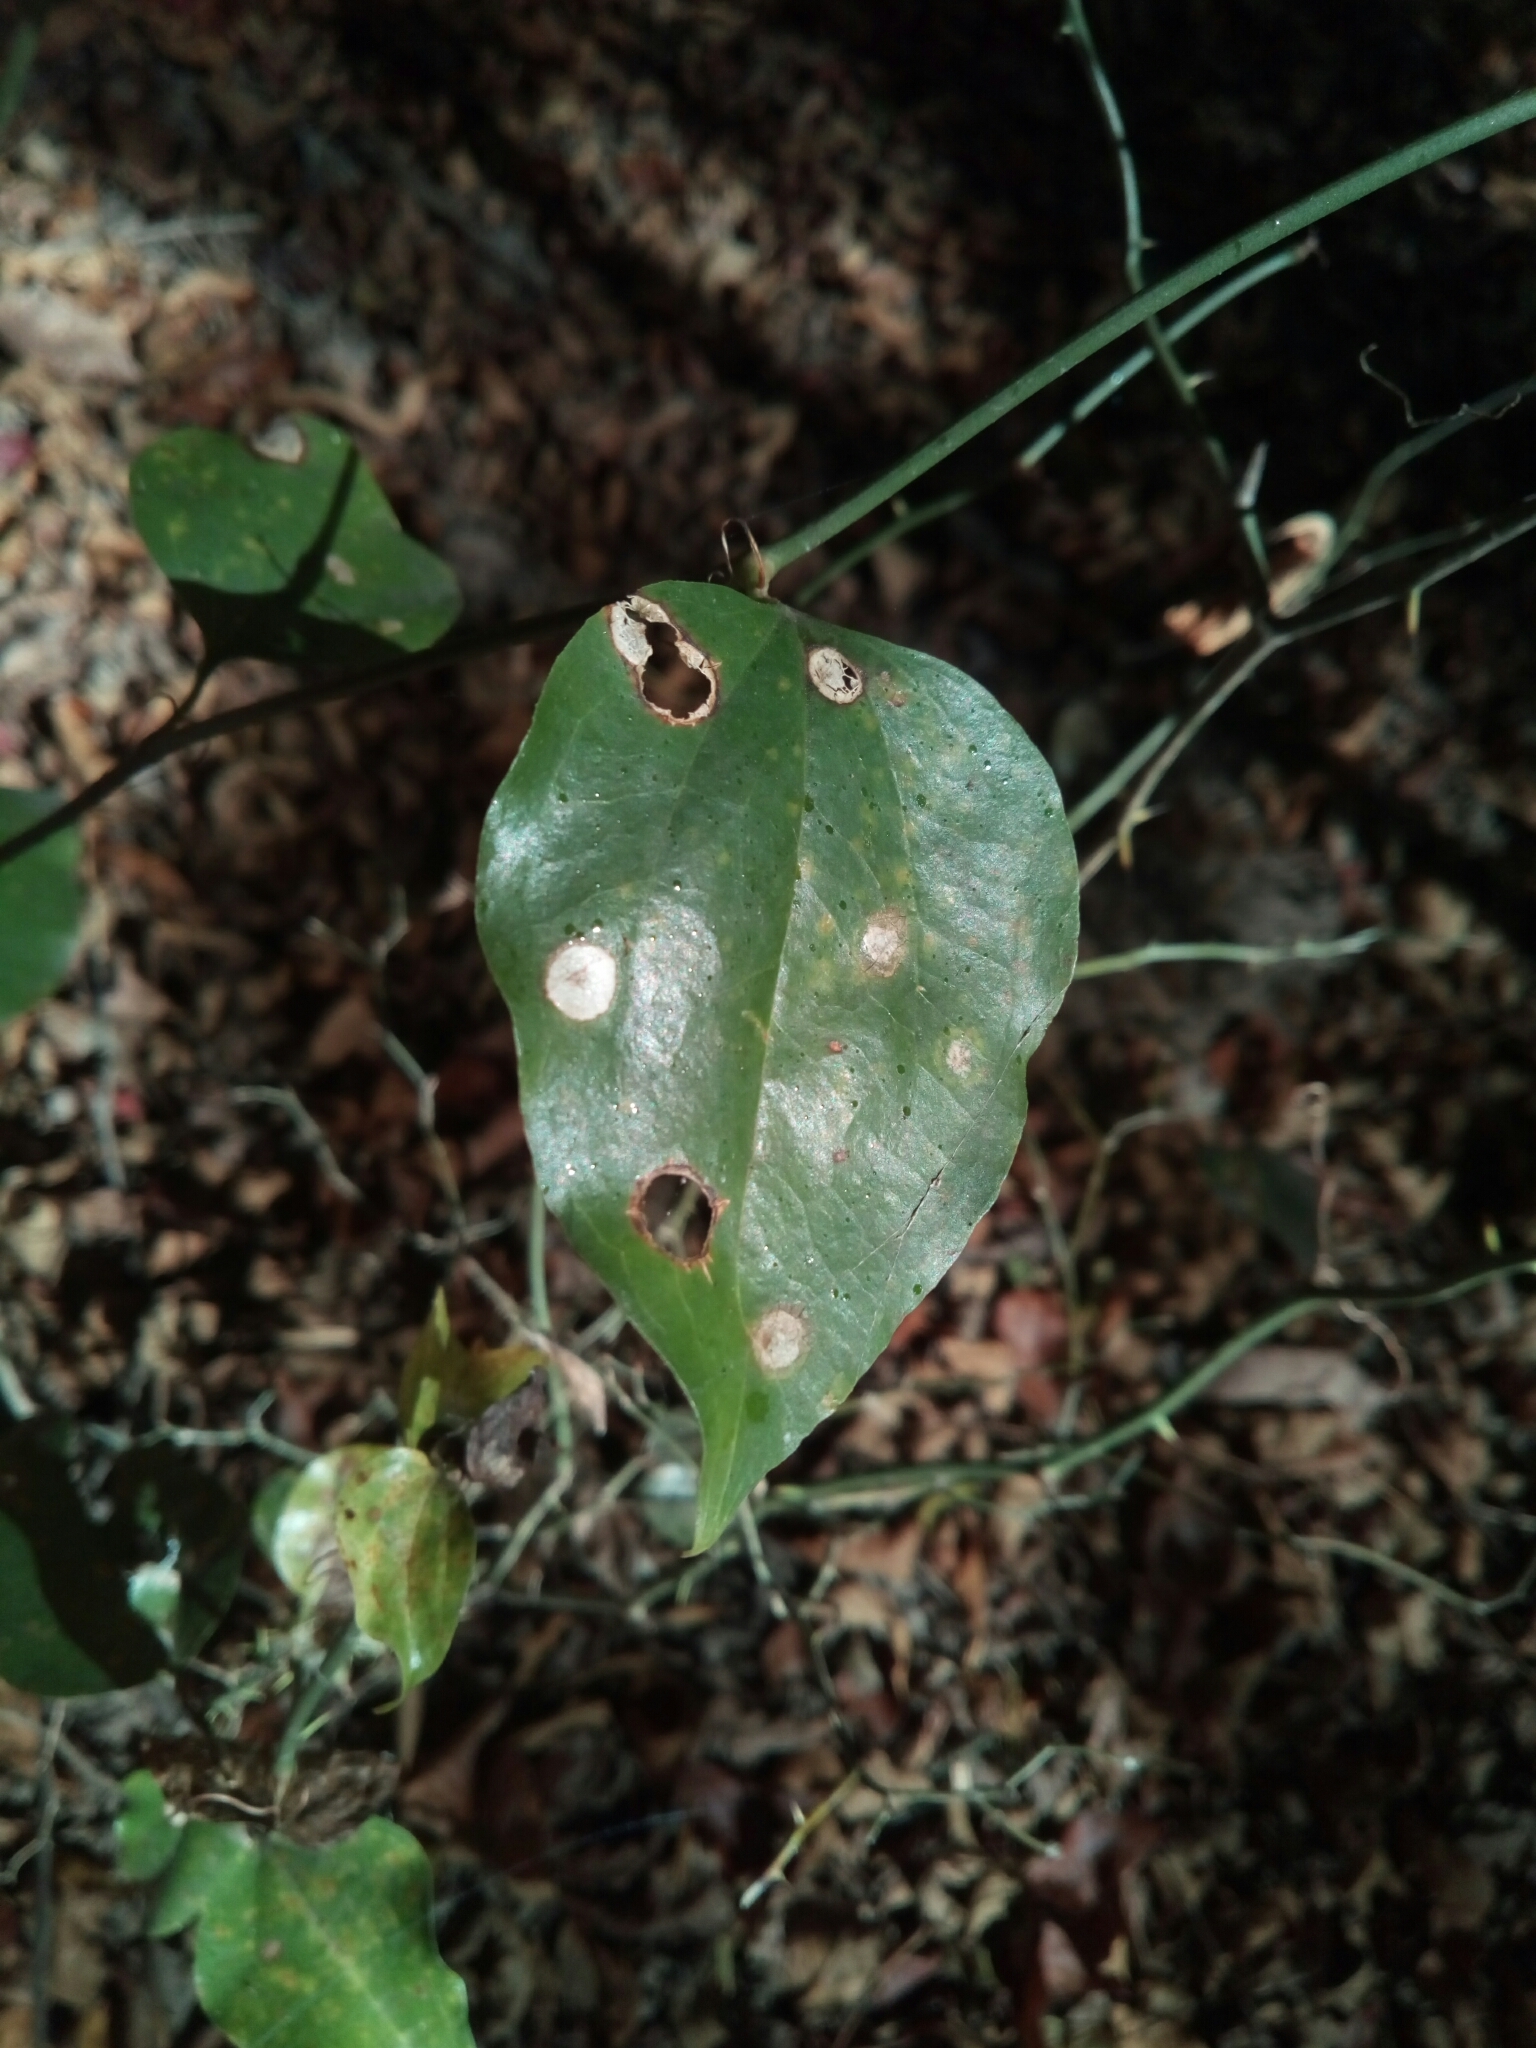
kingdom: Plantae
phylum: Tracheophyta
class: Liliopsida
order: Liliales
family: Smilacaceae
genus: Smilax
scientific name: Smilax rotundifolia
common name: Bullbriar
